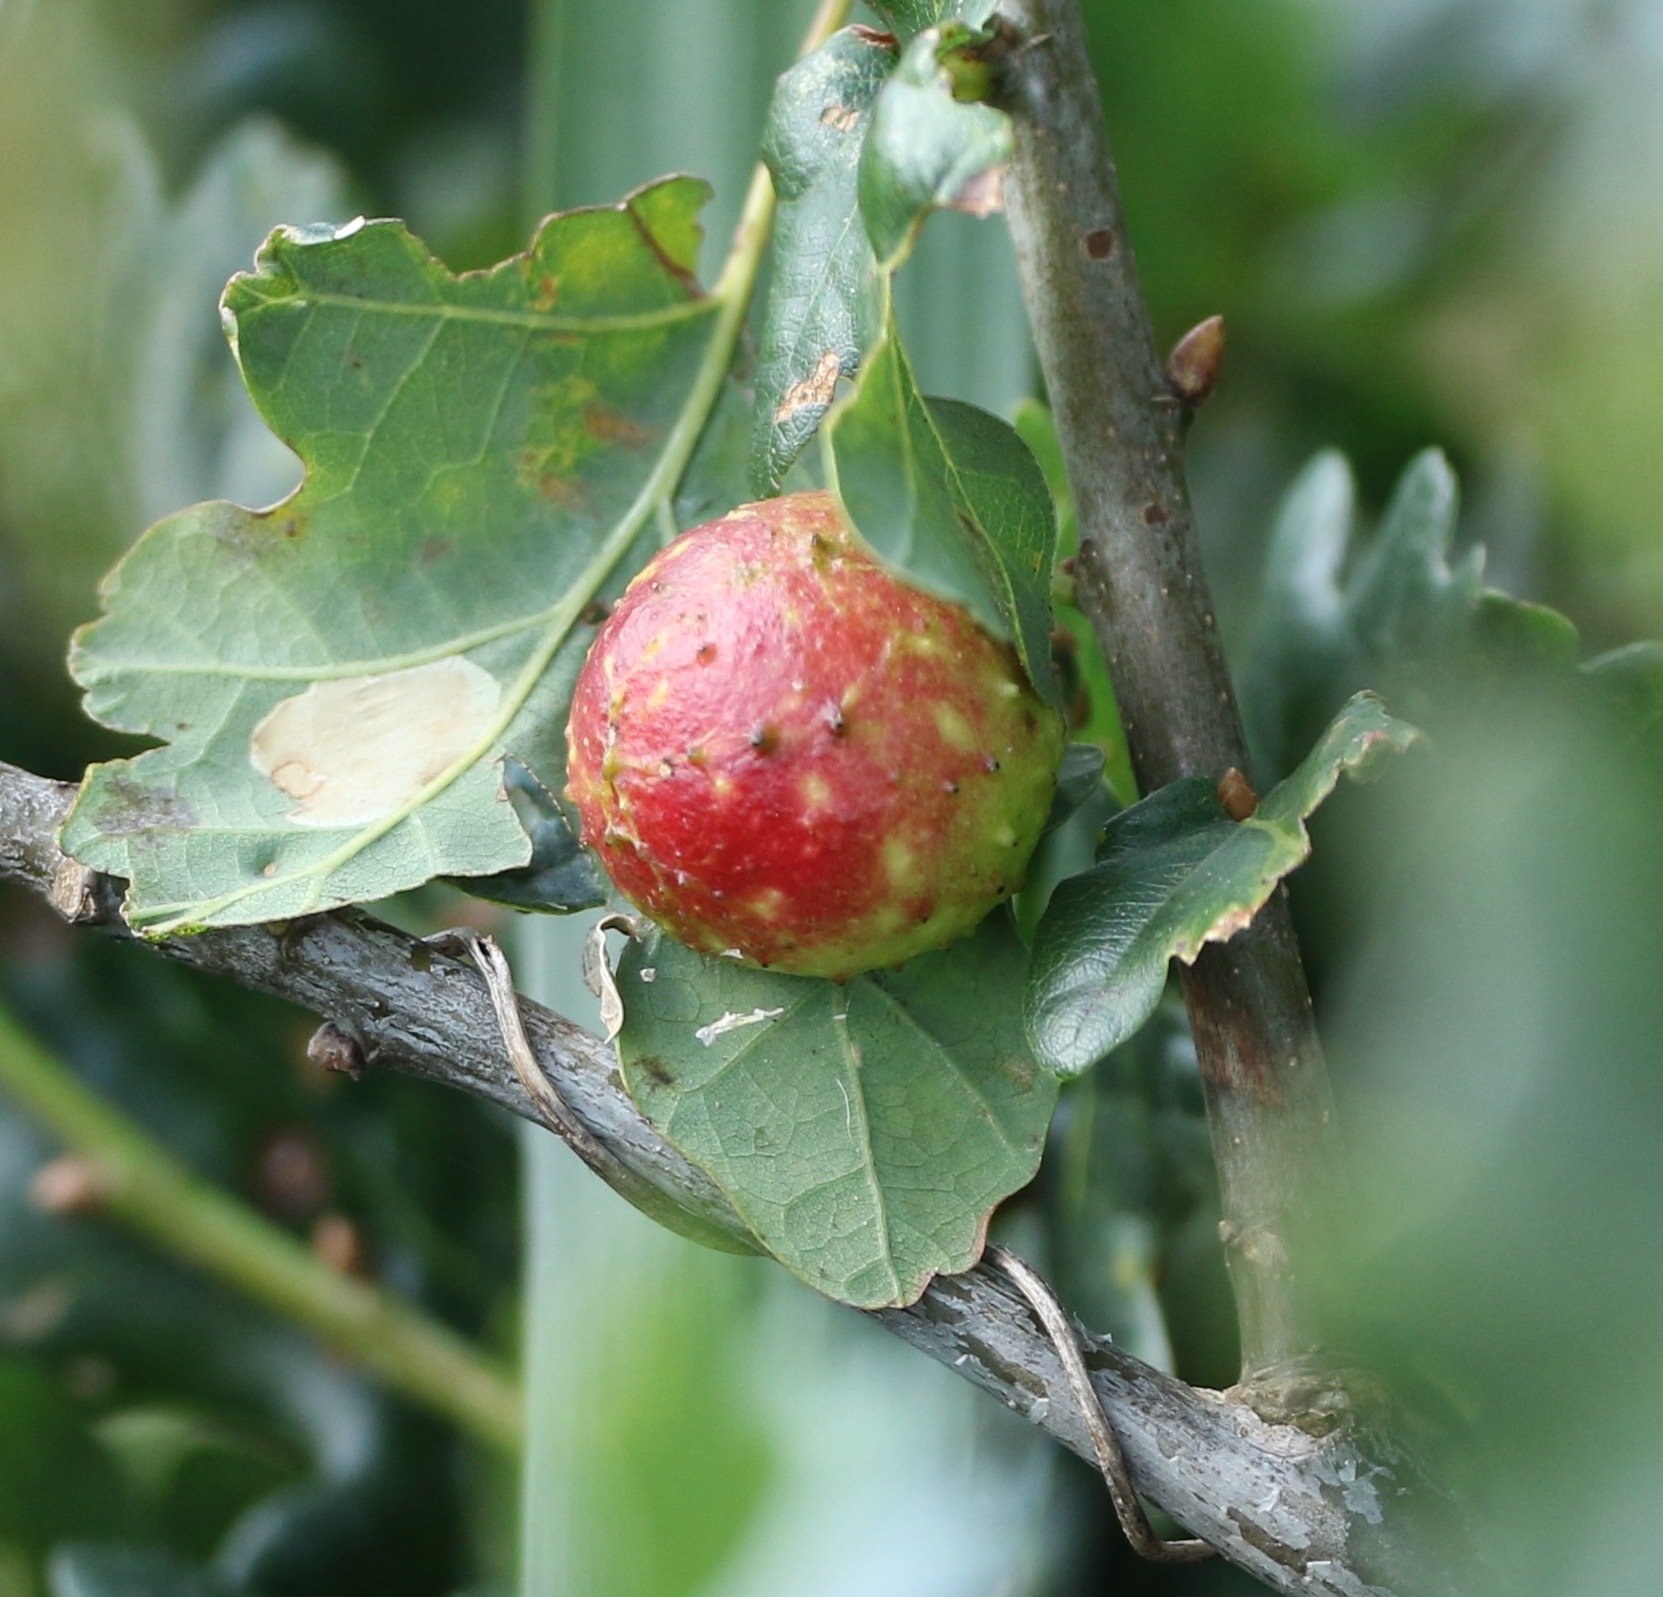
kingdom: Animalia
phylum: Arthropoda
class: Insecta
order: Hymenoptera
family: Cynipidae
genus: Cynips
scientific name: Cynips quercusfolii
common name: Cherry gall
